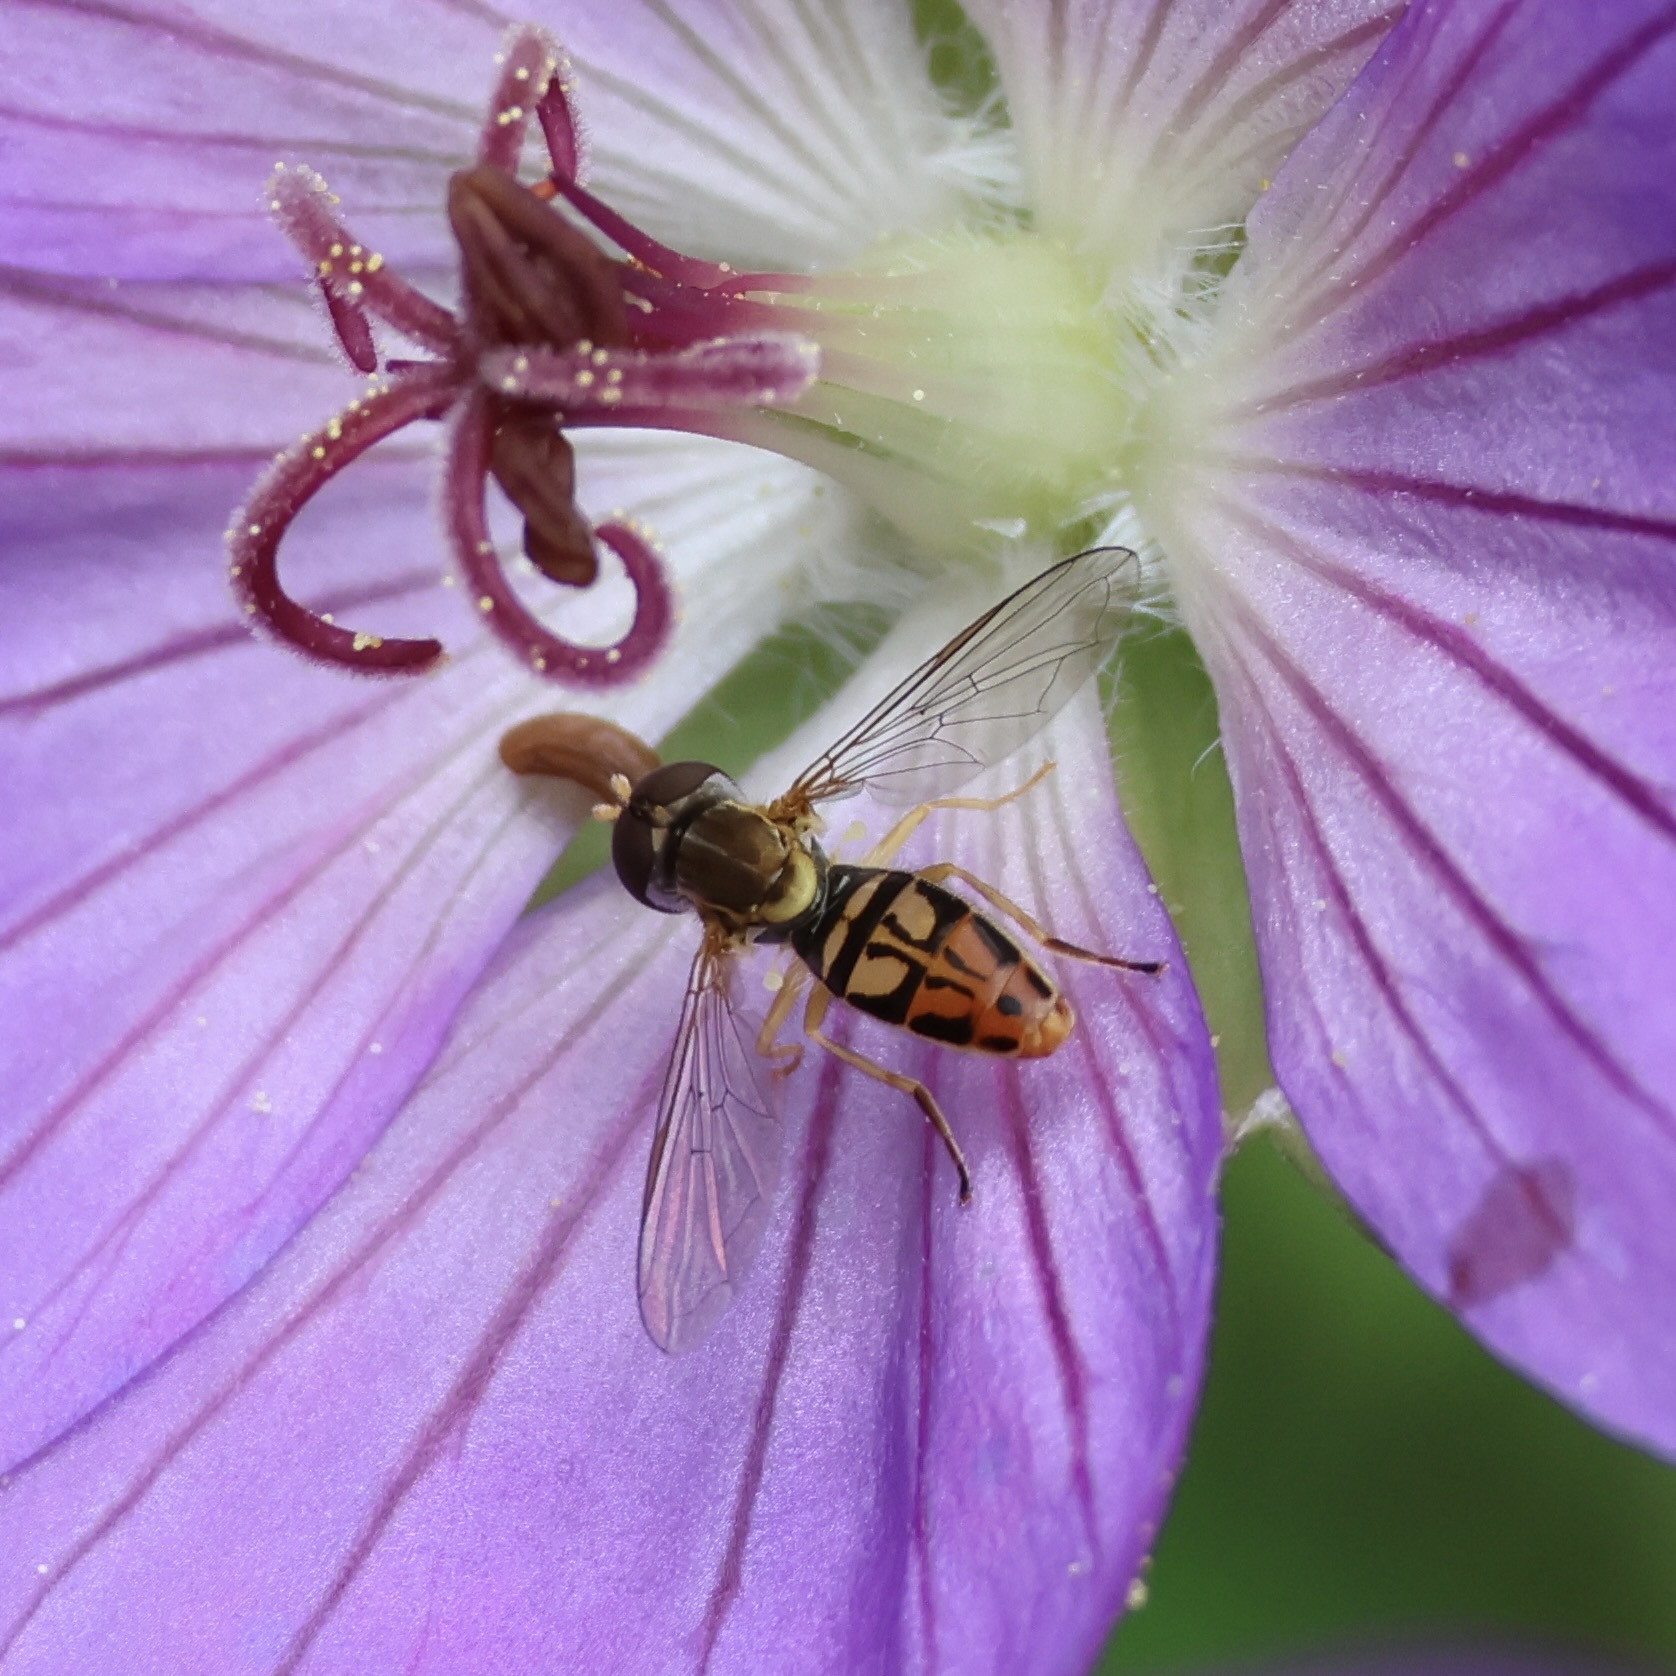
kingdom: Animalia
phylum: Arthropoda
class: Insecta
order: Diptera
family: Syrphidae
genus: Toxomerus
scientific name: Toxomerus marginatus
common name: Syrphid fly
